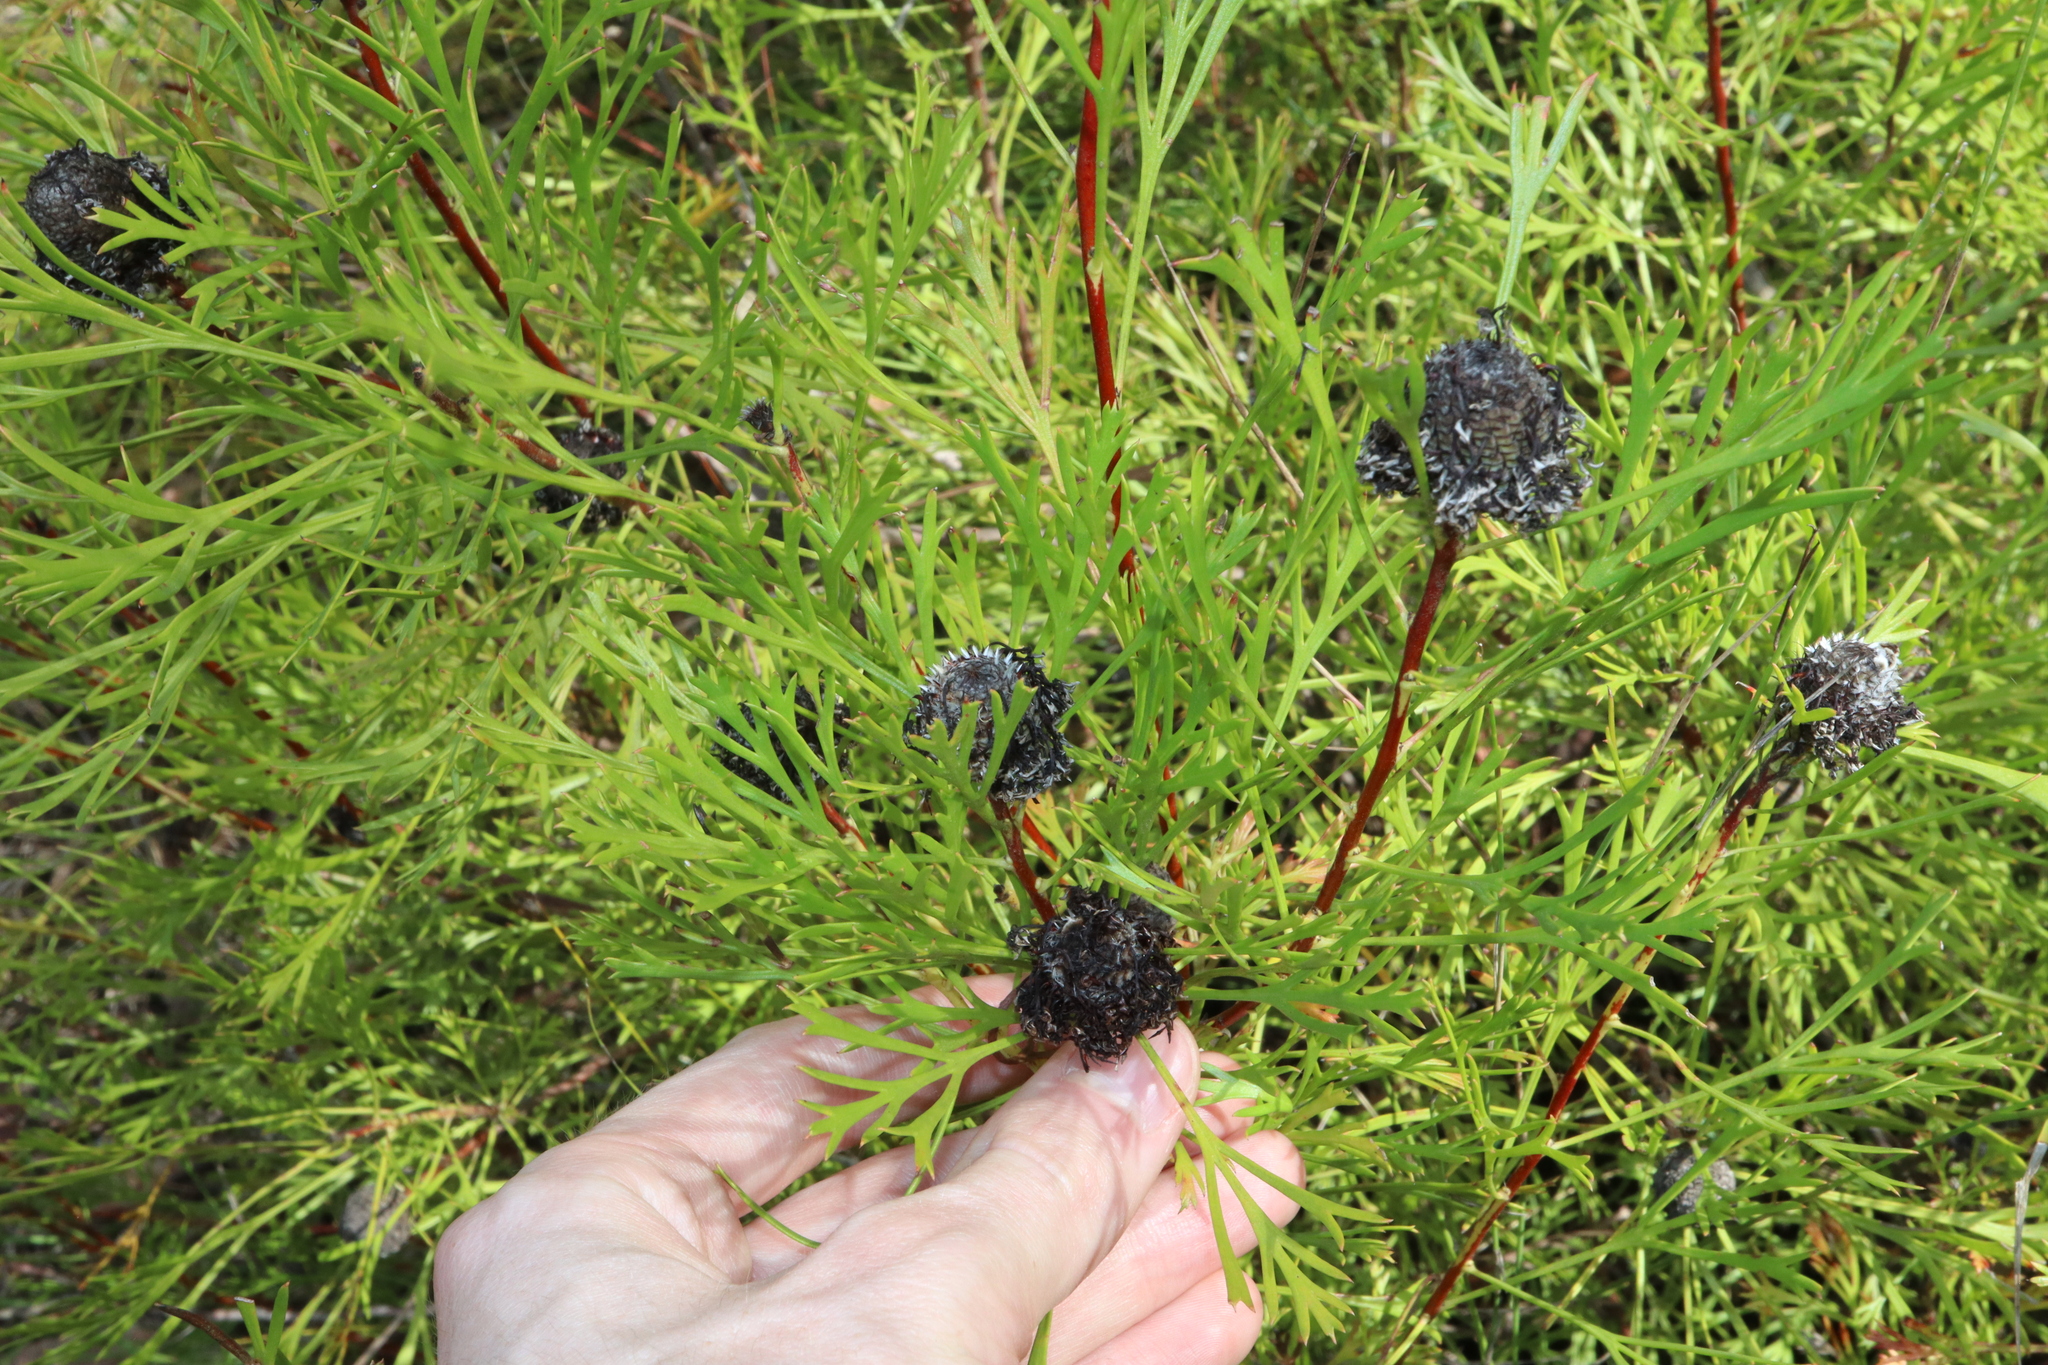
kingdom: Plantae
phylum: Tracheophyta
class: Magnoliopsida
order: Proteales
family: Proteaceae
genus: Isopogon
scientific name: Isopogon anemonifolius
